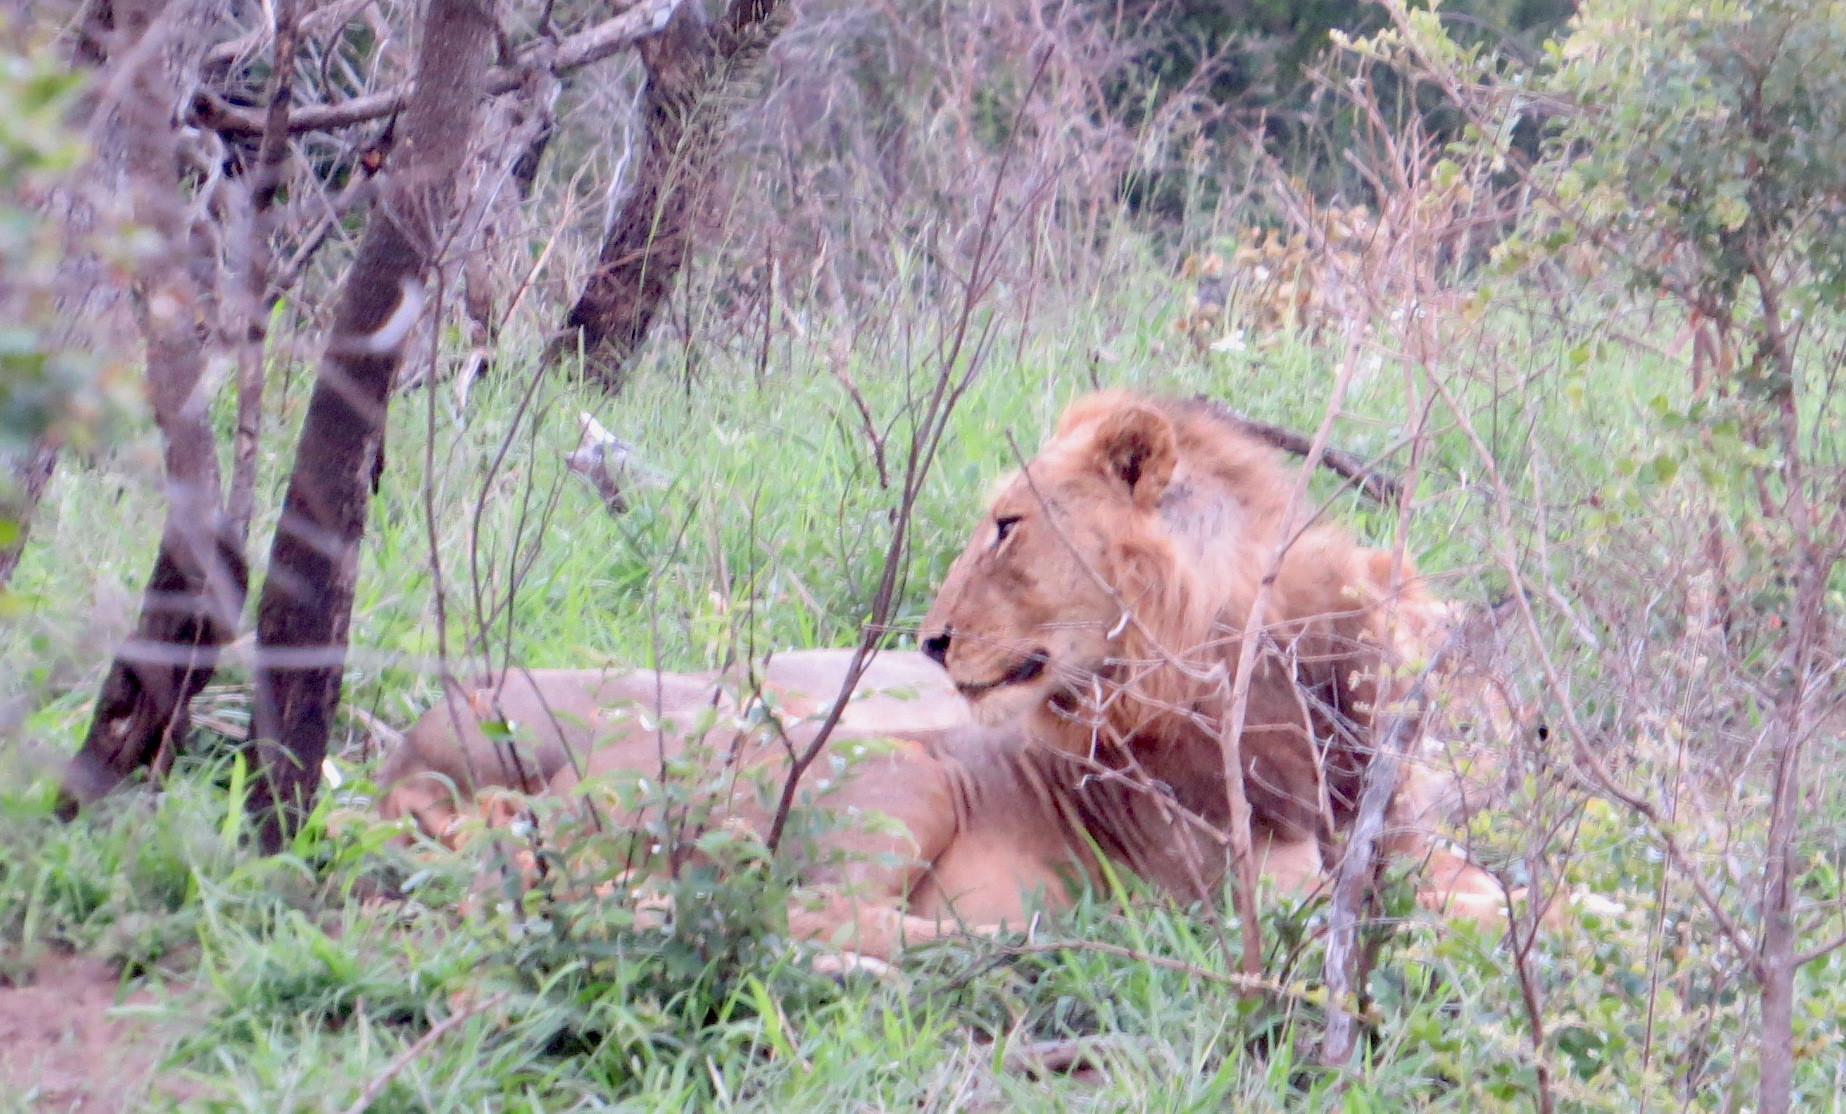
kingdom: Animalia
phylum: Chordata
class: Mammalia
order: Carnivora
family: Felidae
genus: Panthera
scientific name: Panthera leo
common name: Lion
